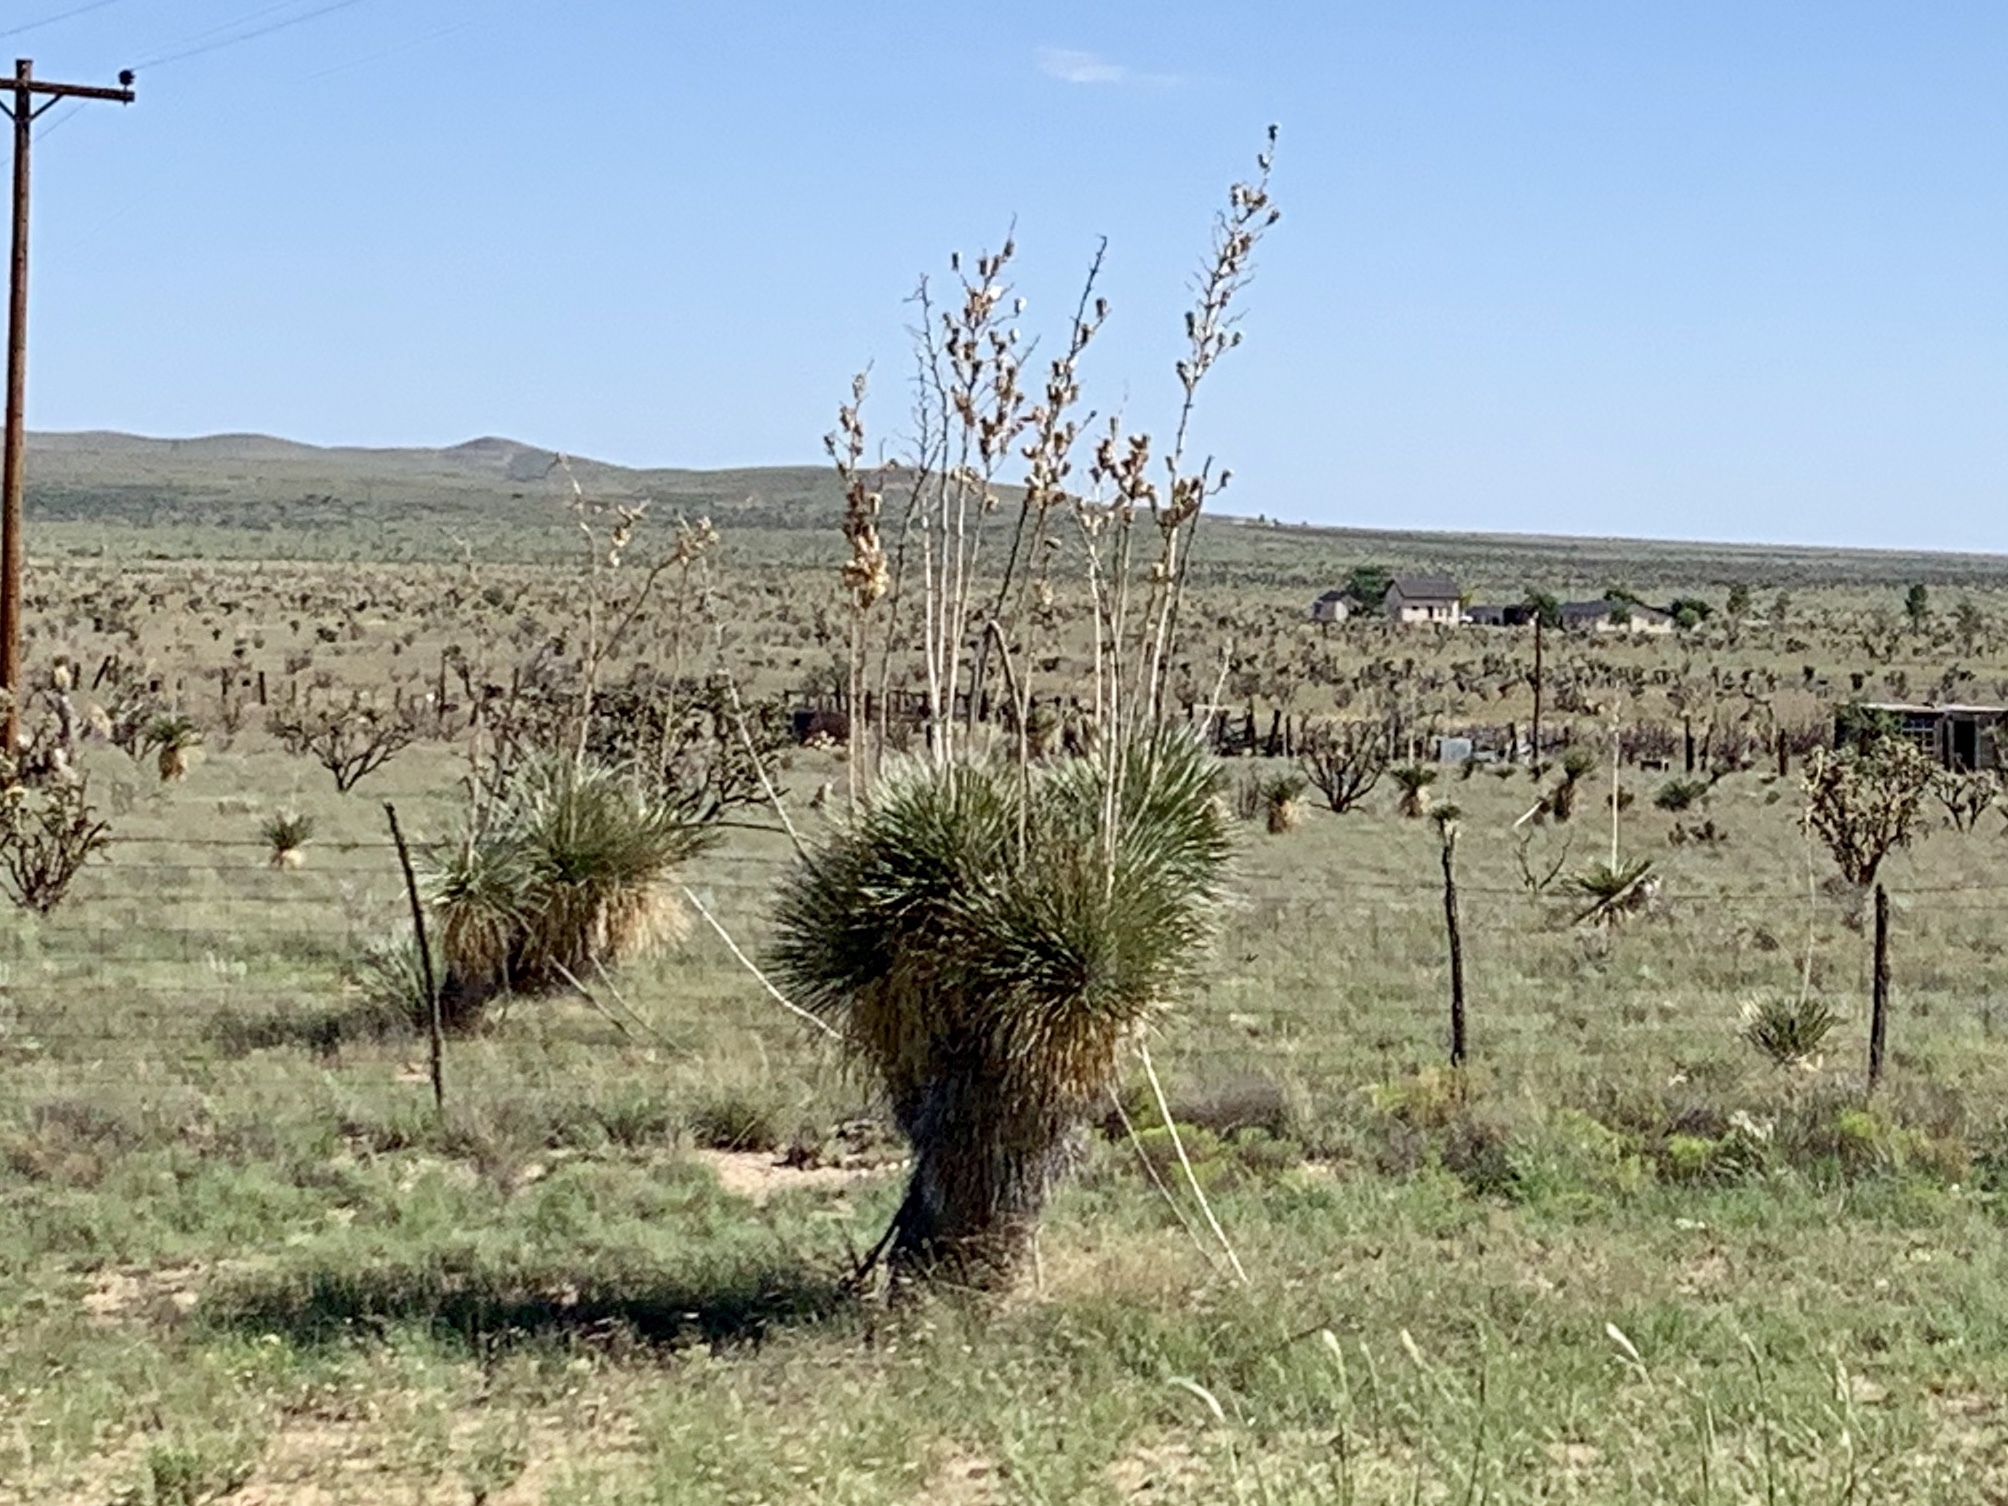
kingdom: Plantae
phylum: Tracheophyta
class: Liliopsida
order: Asparagales
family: Asparagaceae
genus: Yucca
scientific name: Yucca elata
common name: Palmella
